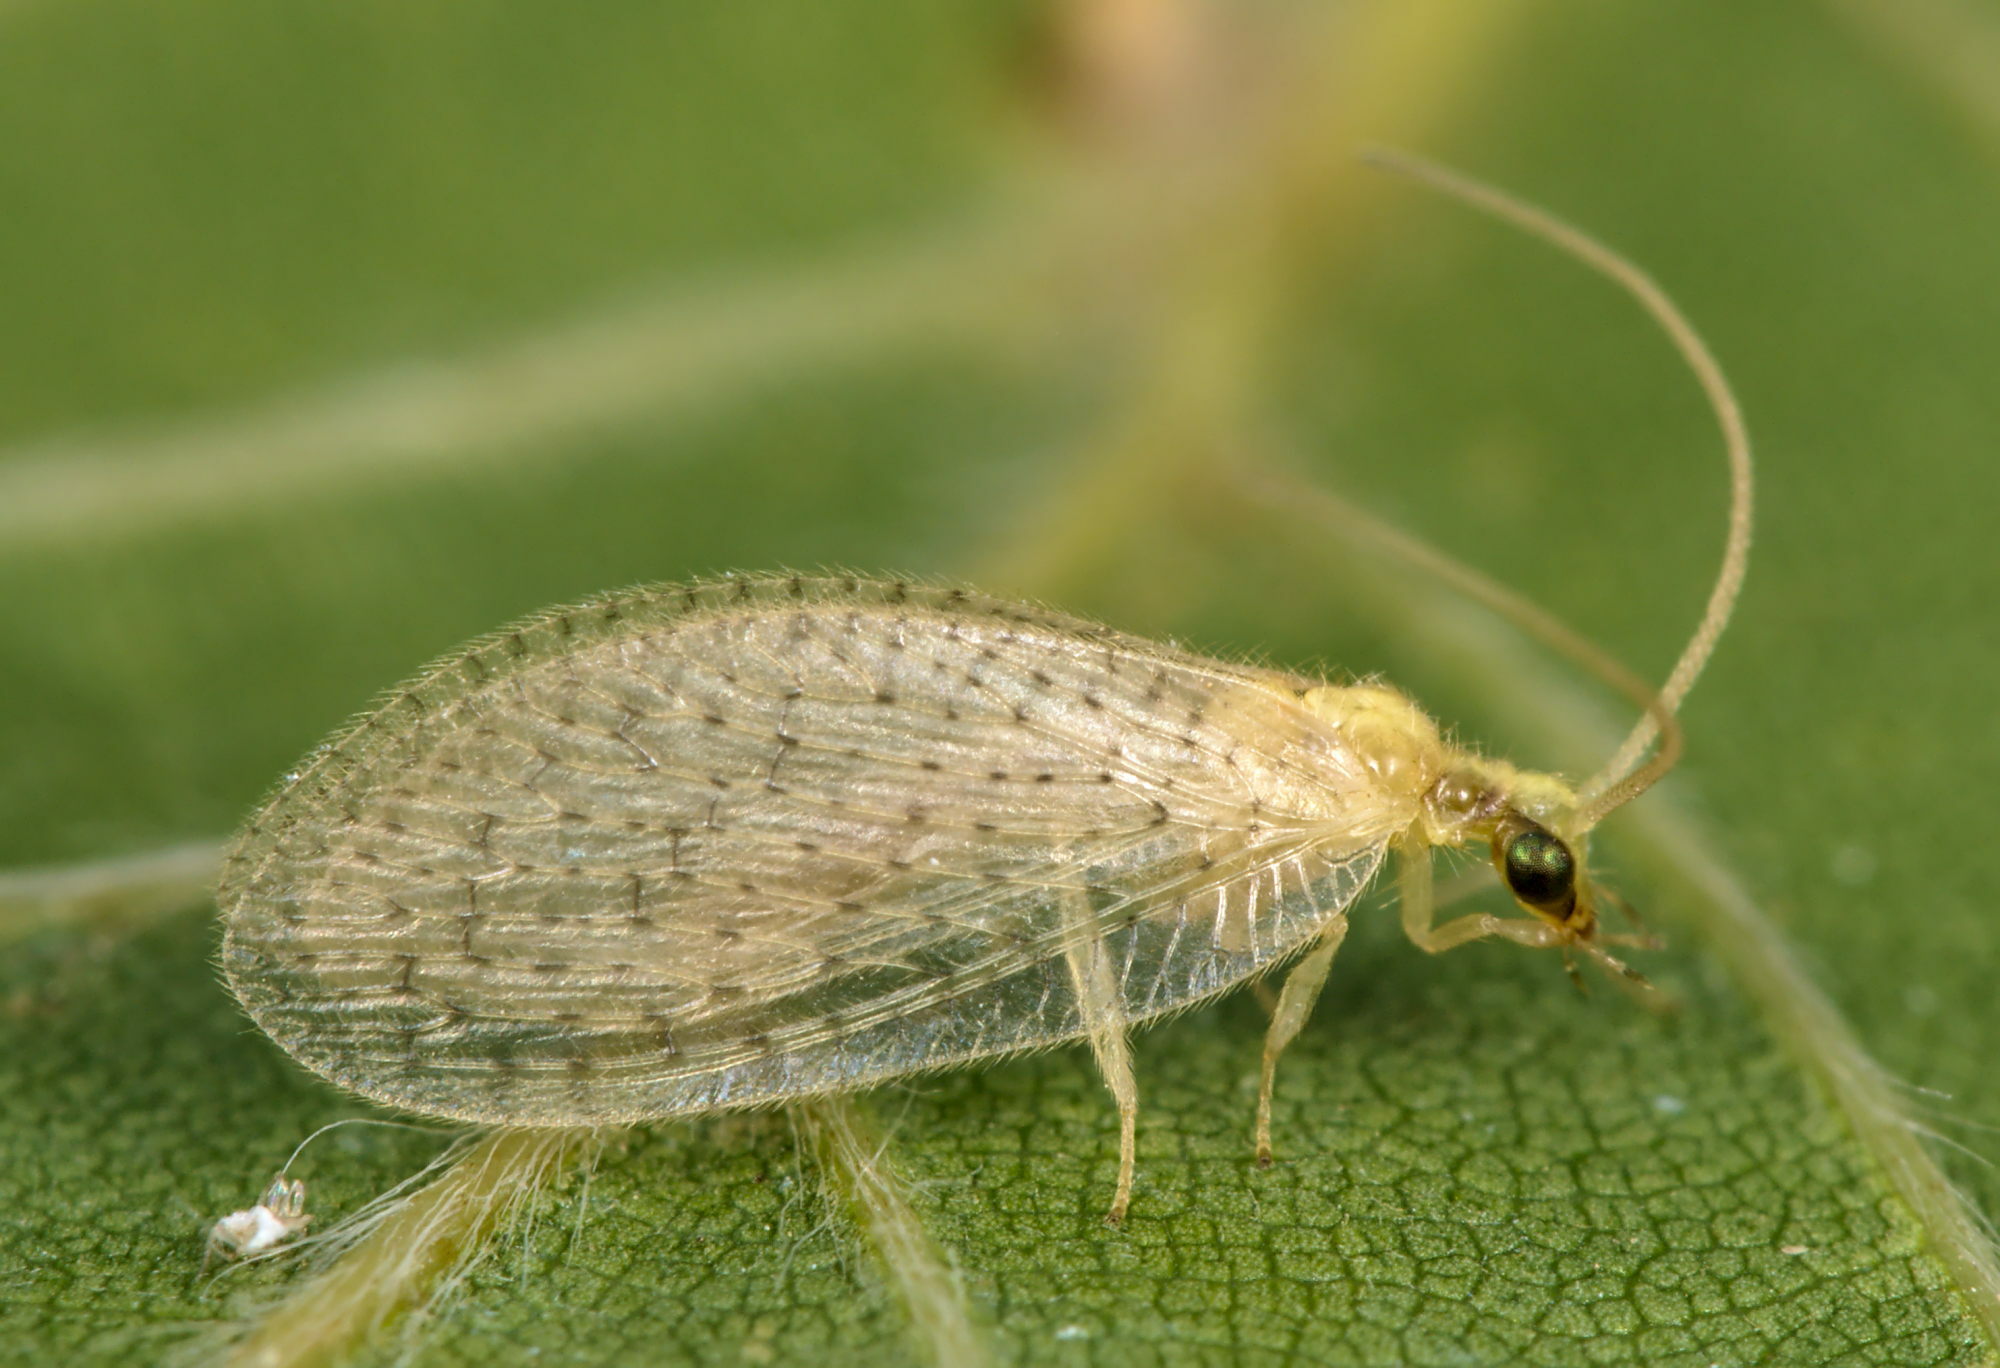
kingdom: Animalia
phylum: Arthropoda
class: Insecta
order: Neuroptera
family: Hemerobiidae
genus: Hemerobius
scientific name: Hemerobius micans
